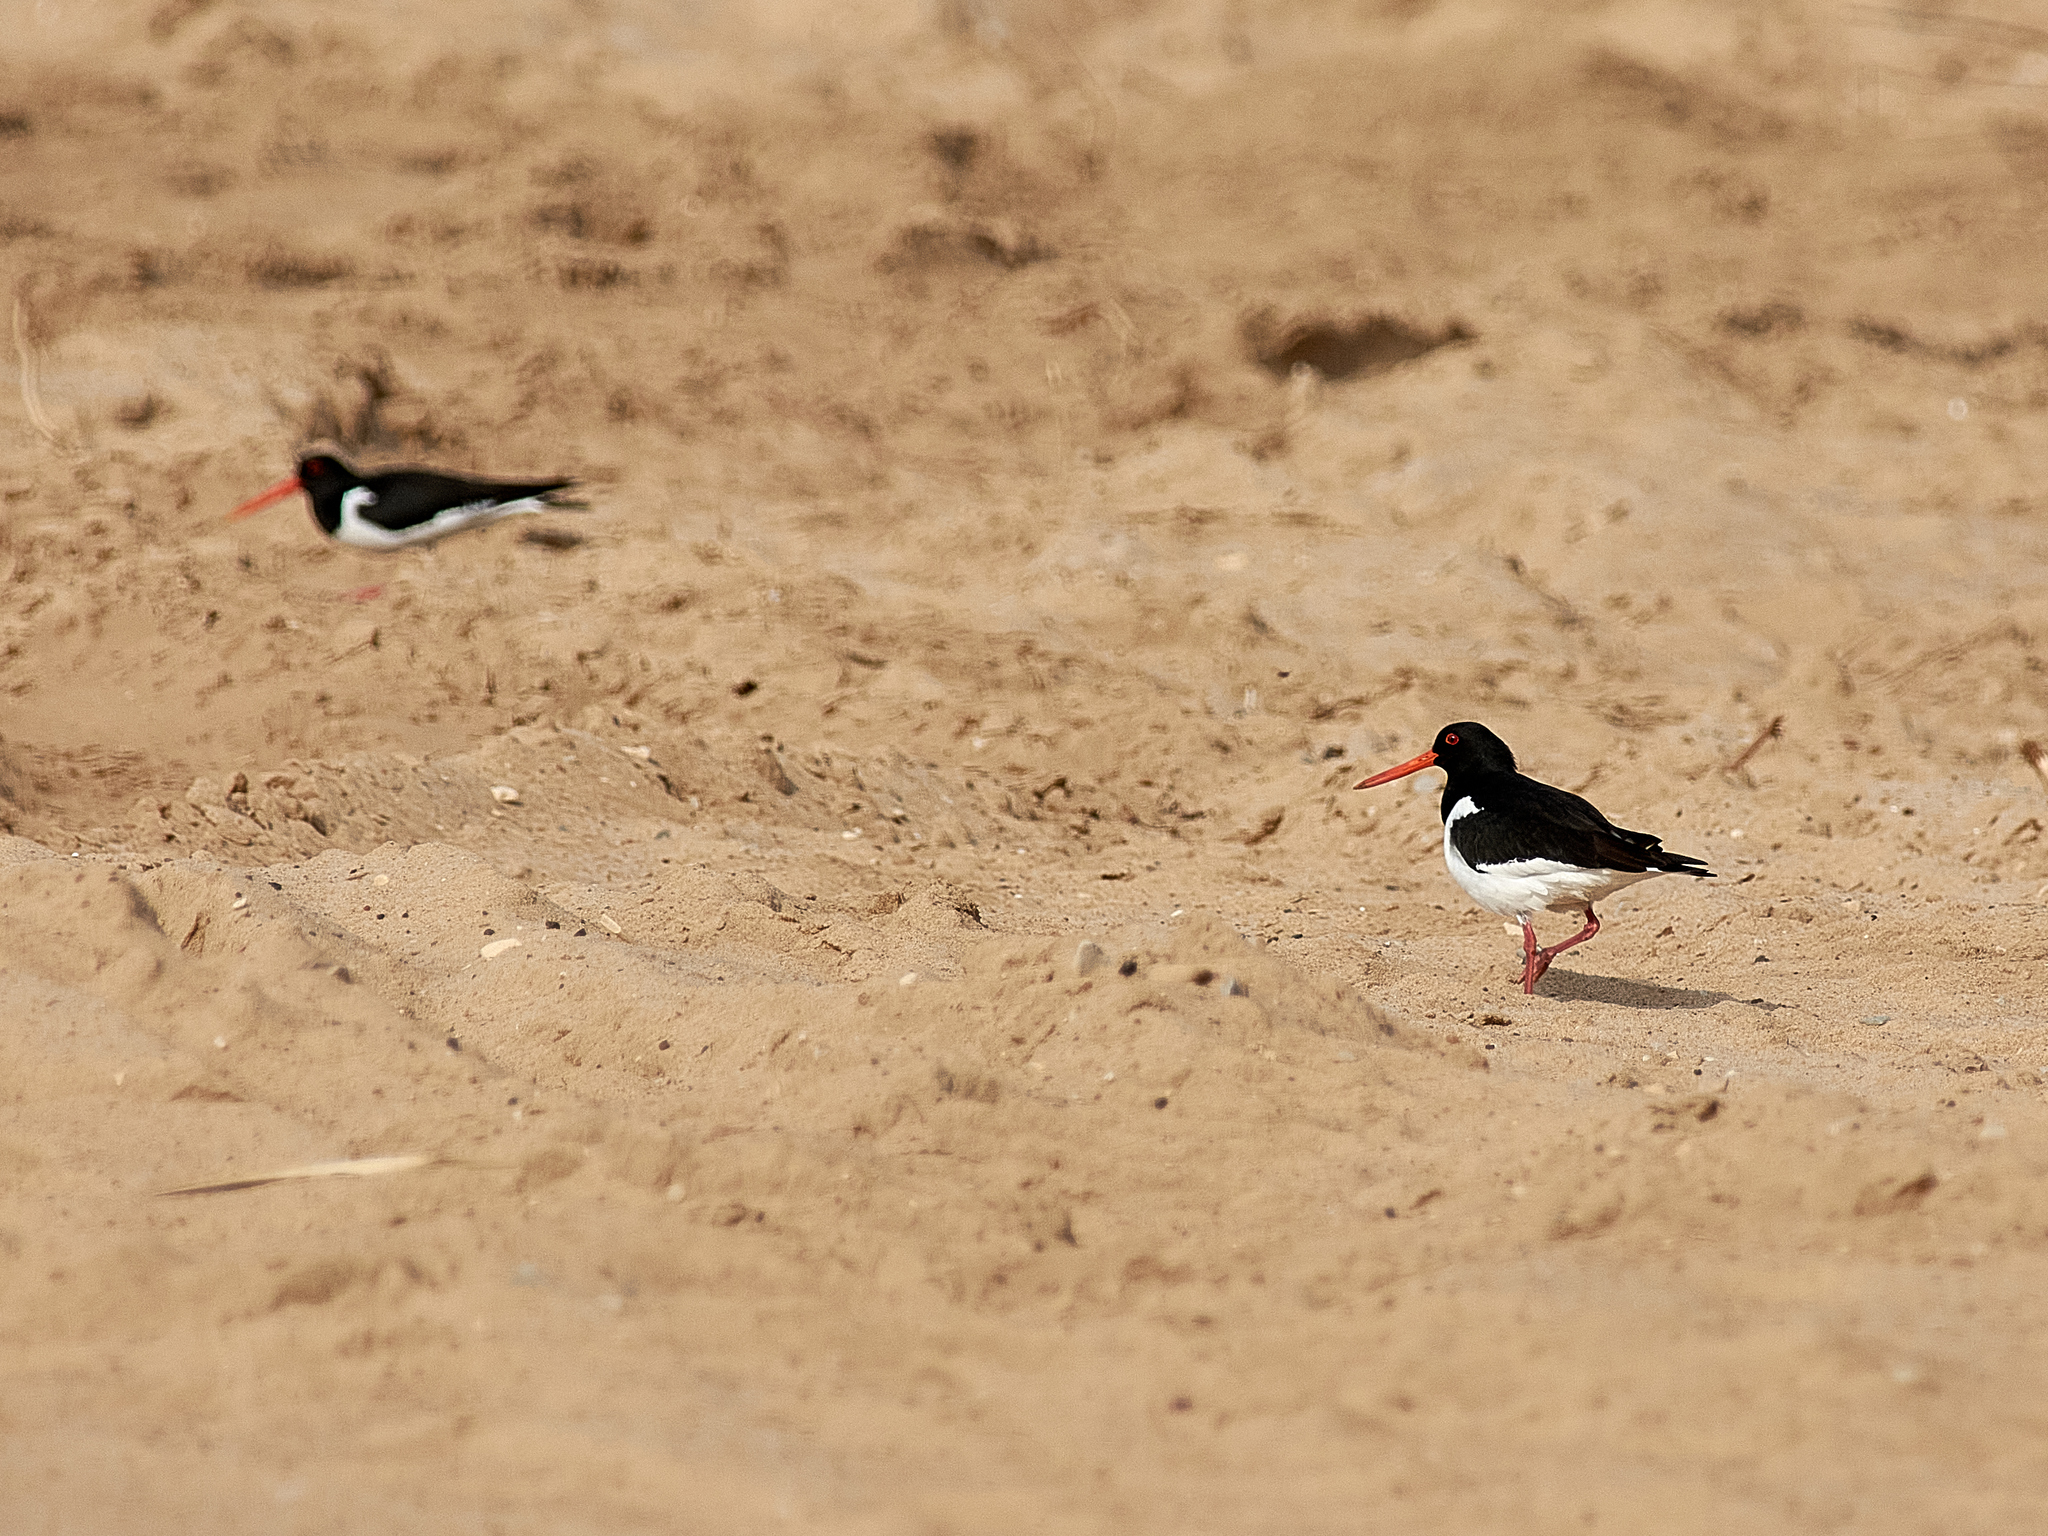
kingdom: Animalia
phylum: Chordata
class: Aves
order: Charadriiformes
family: Haematopodidae
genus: Haematopus
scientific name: Haematopus ostralegus
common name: Eurasian oystercatcher
